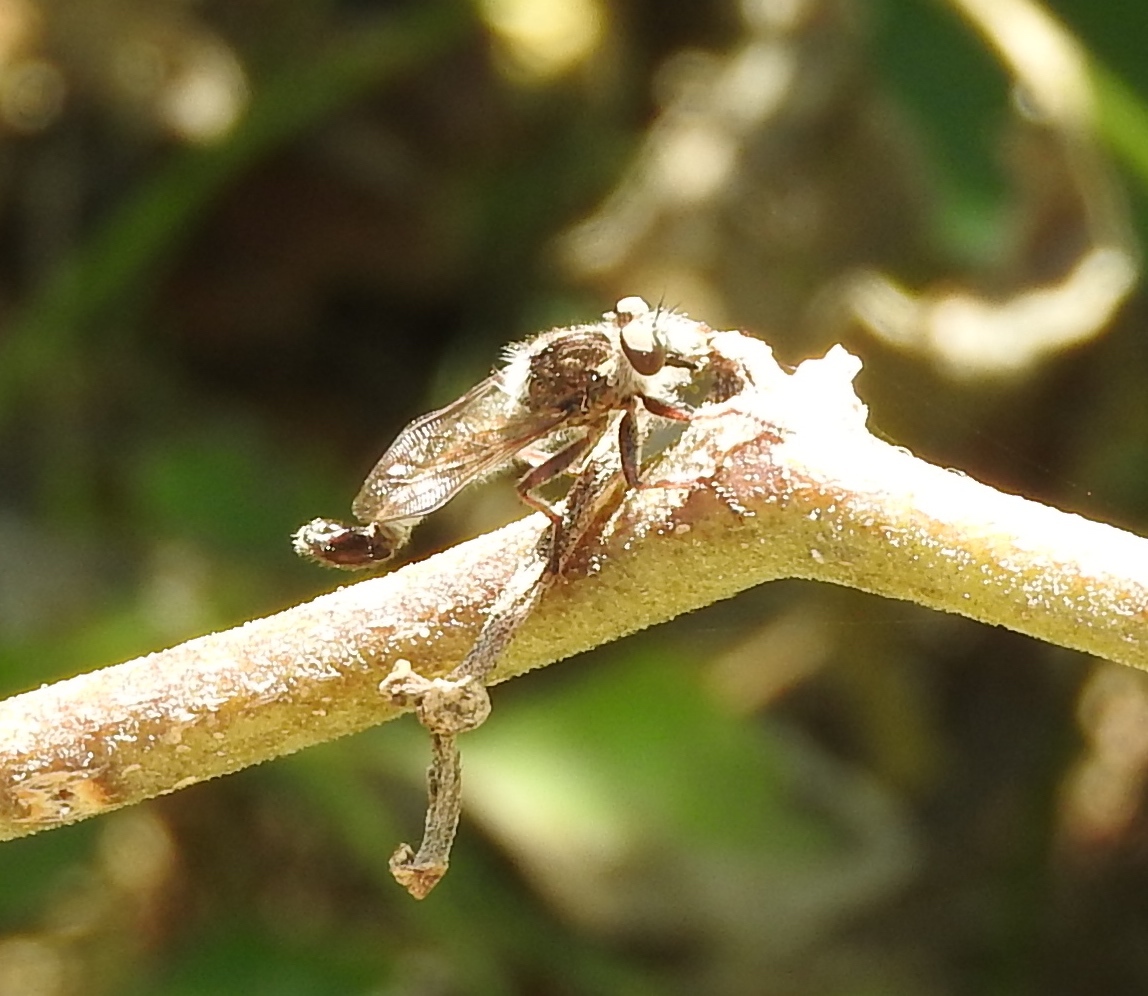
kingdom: Animalia
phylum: Arthropoda
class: Insecta
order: Diptera
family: Asilidae
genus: Efferia
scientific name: Efferia
